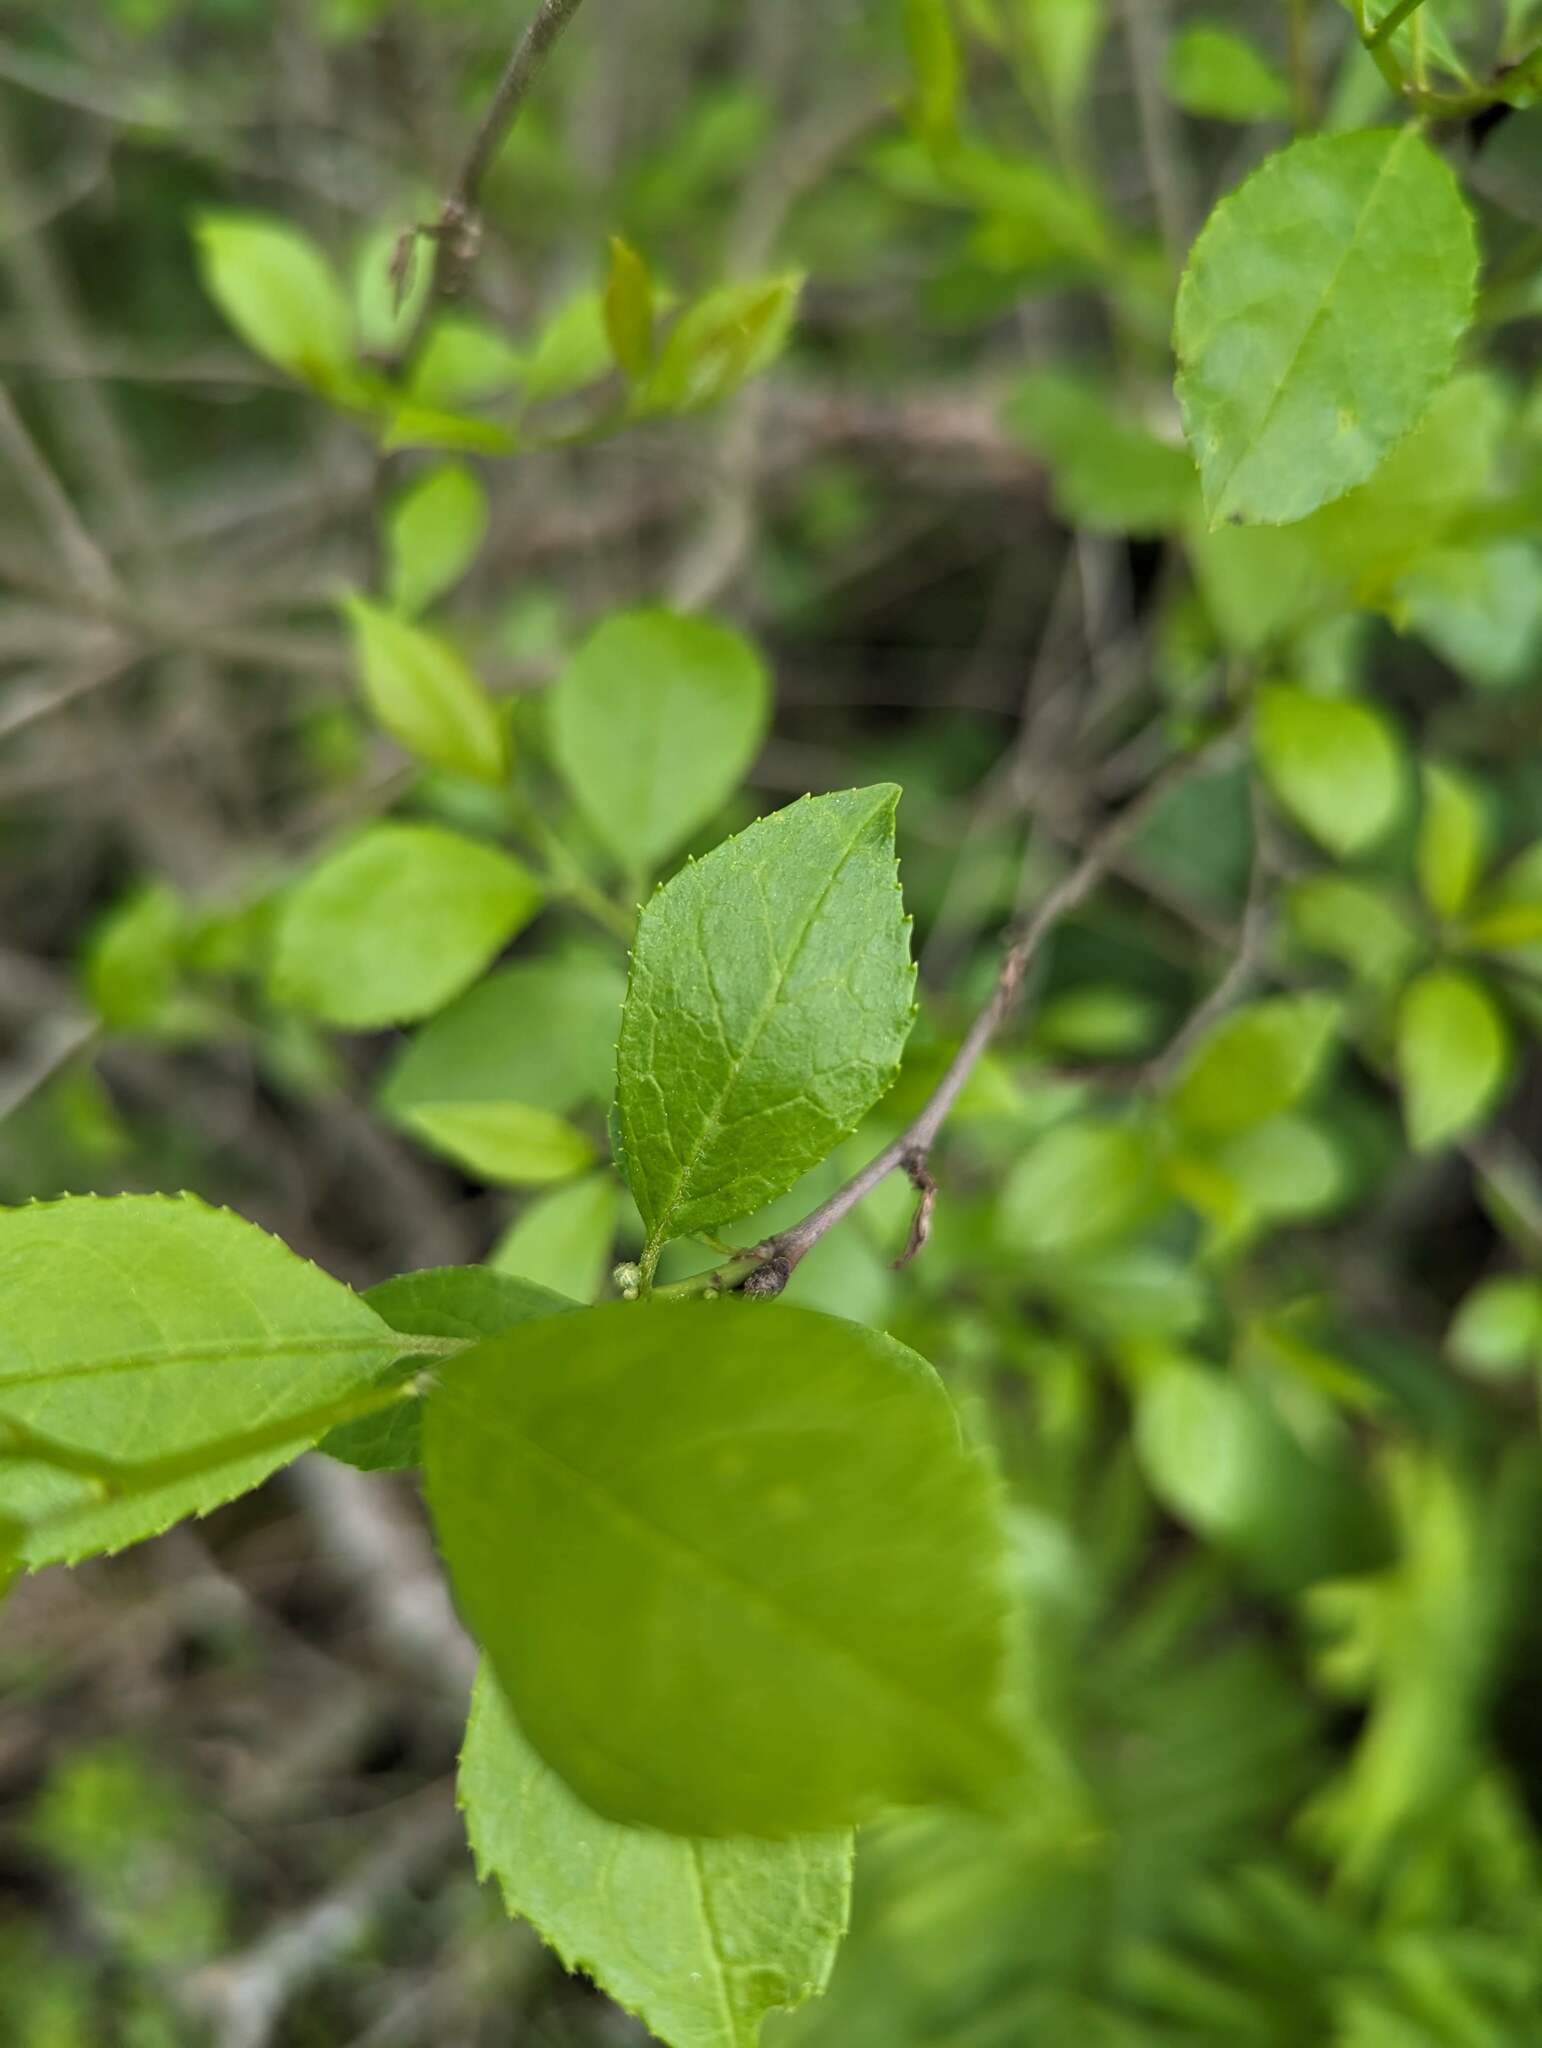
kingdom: Plantae
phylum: Tracheophyta
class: Magnoliopsida
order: Aquifoliales
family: Aquifoliaceae
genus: Ilex
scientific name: Ilex verticillata
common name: Virginia winterberry
